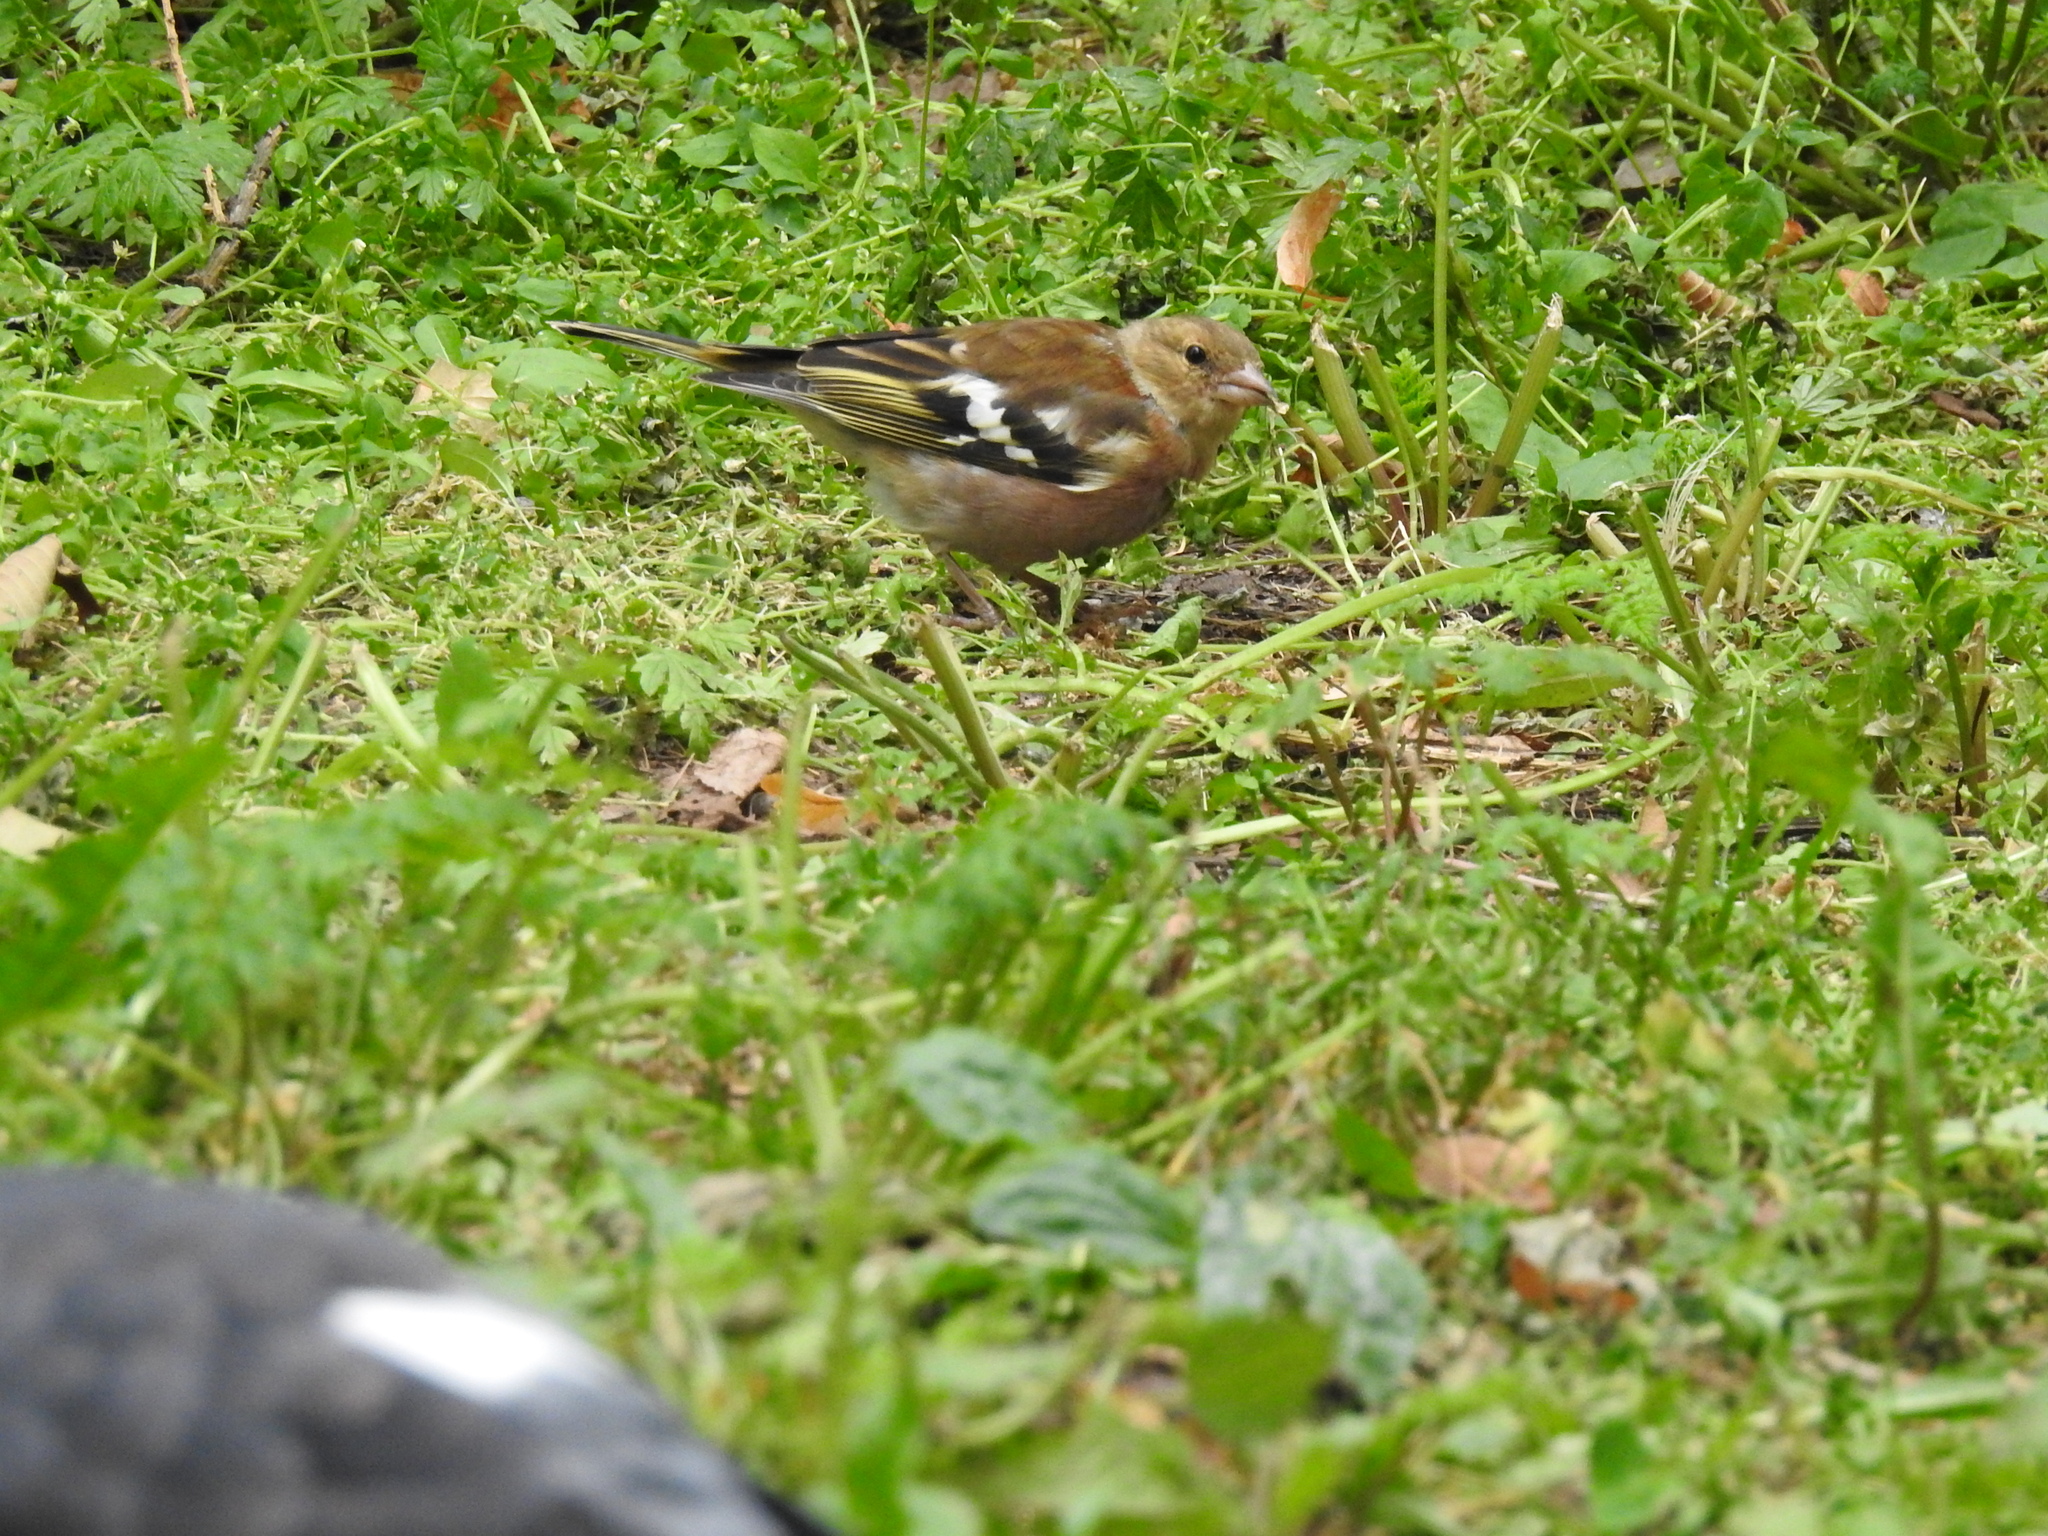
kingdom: Animalia
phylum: Chordata
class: Aves
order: Passeriformes
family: Fringillidae
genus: Fringilla
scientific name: Fringilla coelebs
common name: Common chaffinch
